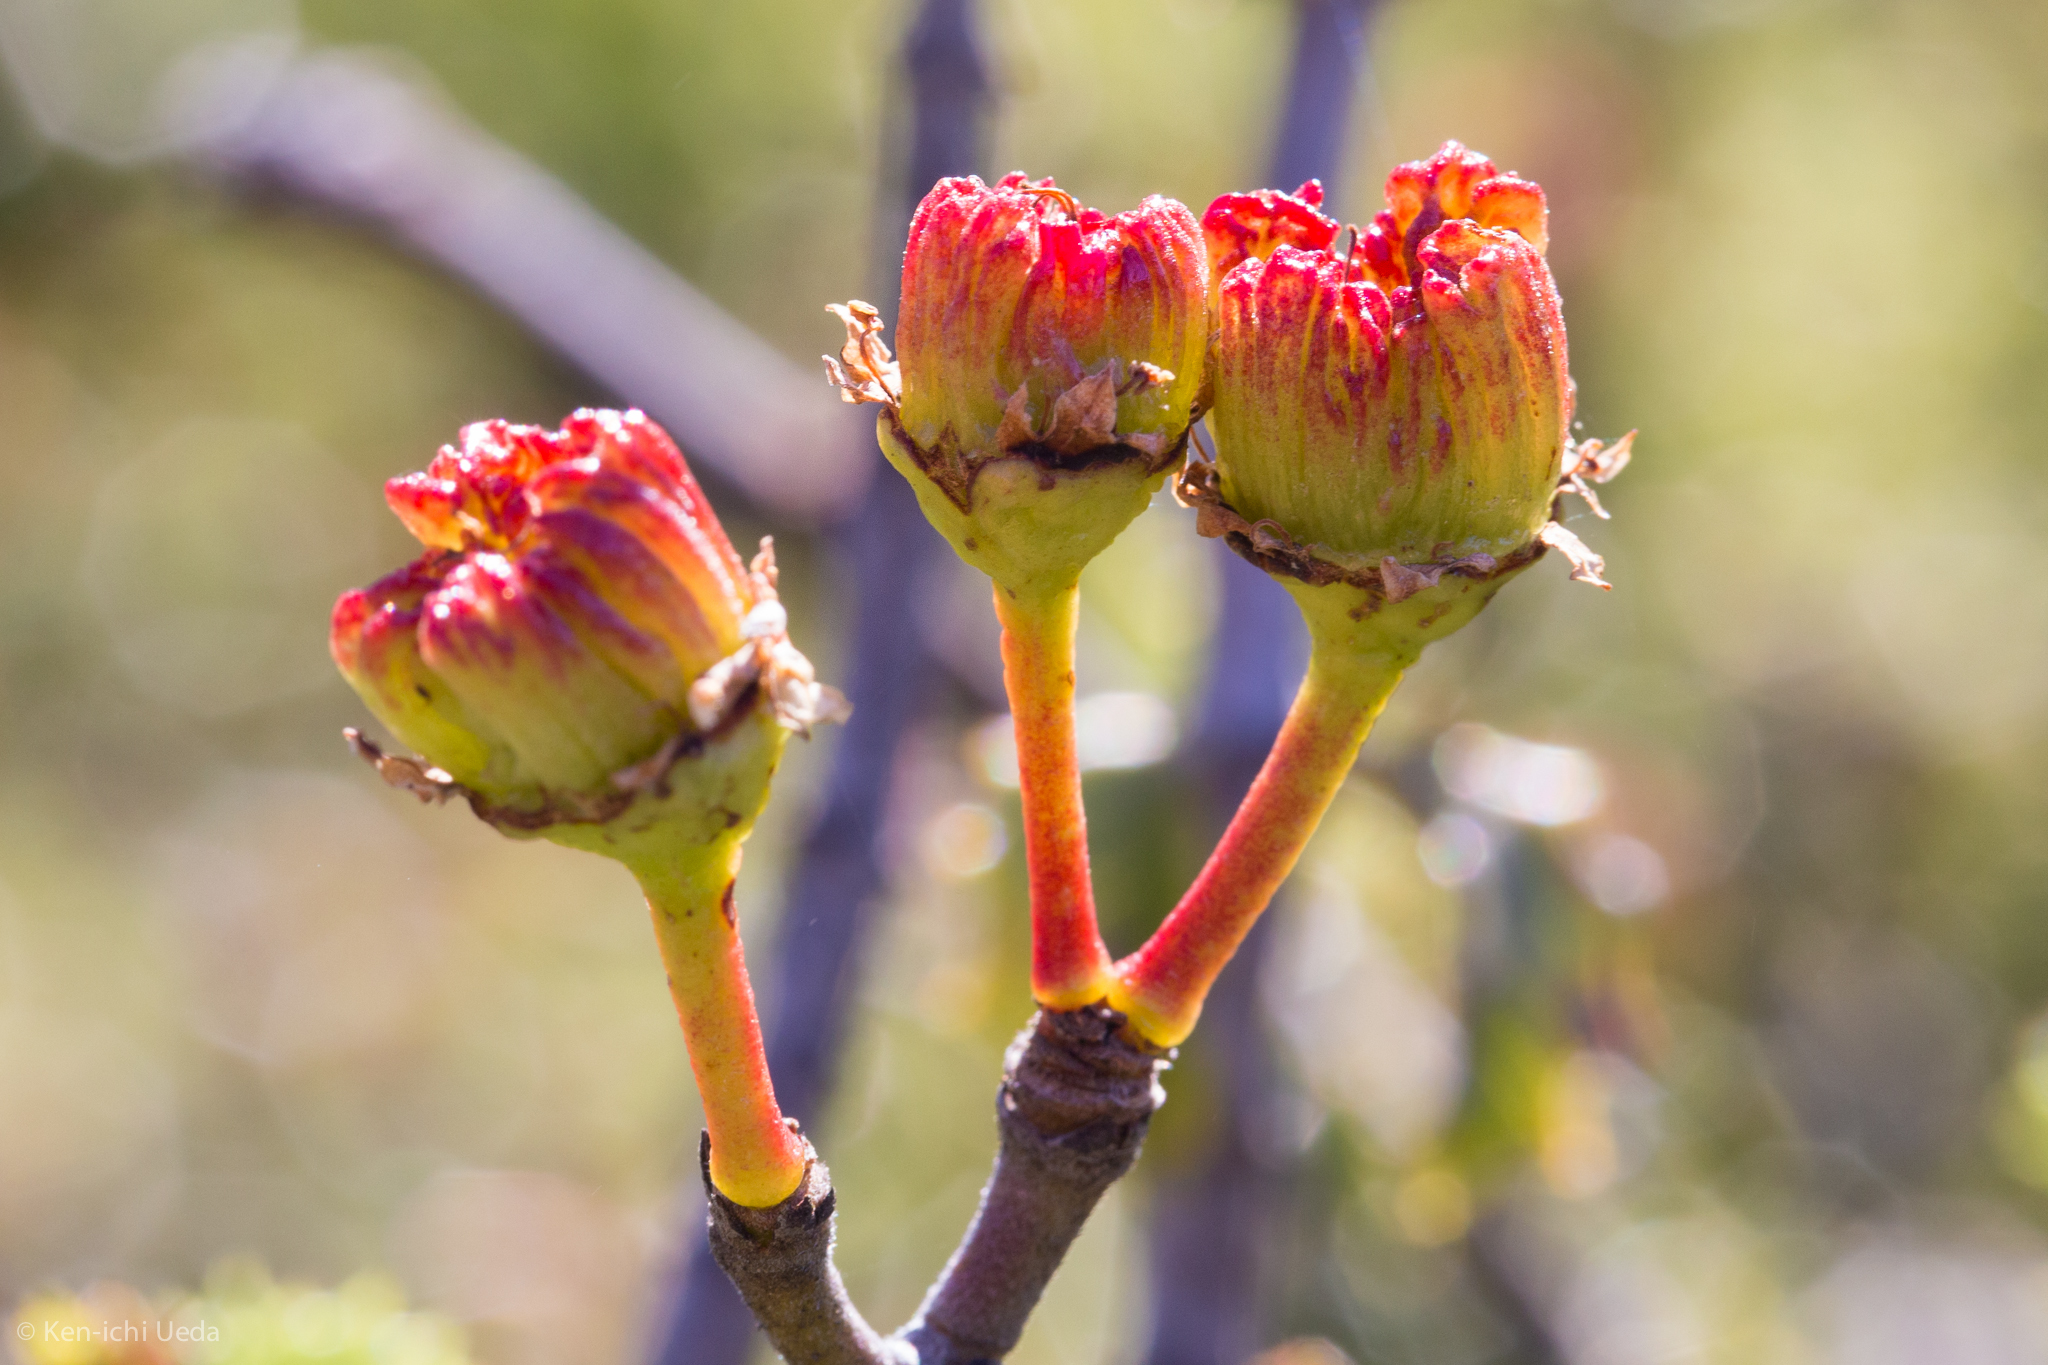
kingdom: Plantae
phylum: Tracheophyta
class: Magnoliopsida
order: Rosales
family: Rhamnaceae
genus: Ceanothus
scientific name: Ceanothus jepsonii
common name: Muskbrush
